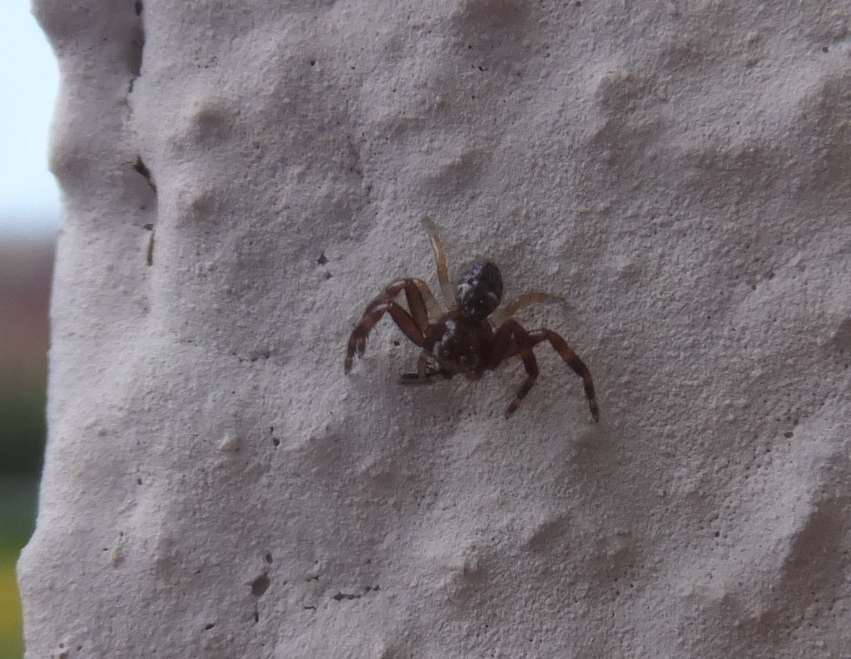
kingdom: Animalia
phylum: Arthropoda
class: Arachnida
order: Araneae
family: Thomisidae
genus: Synema
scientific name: Synema globosum
